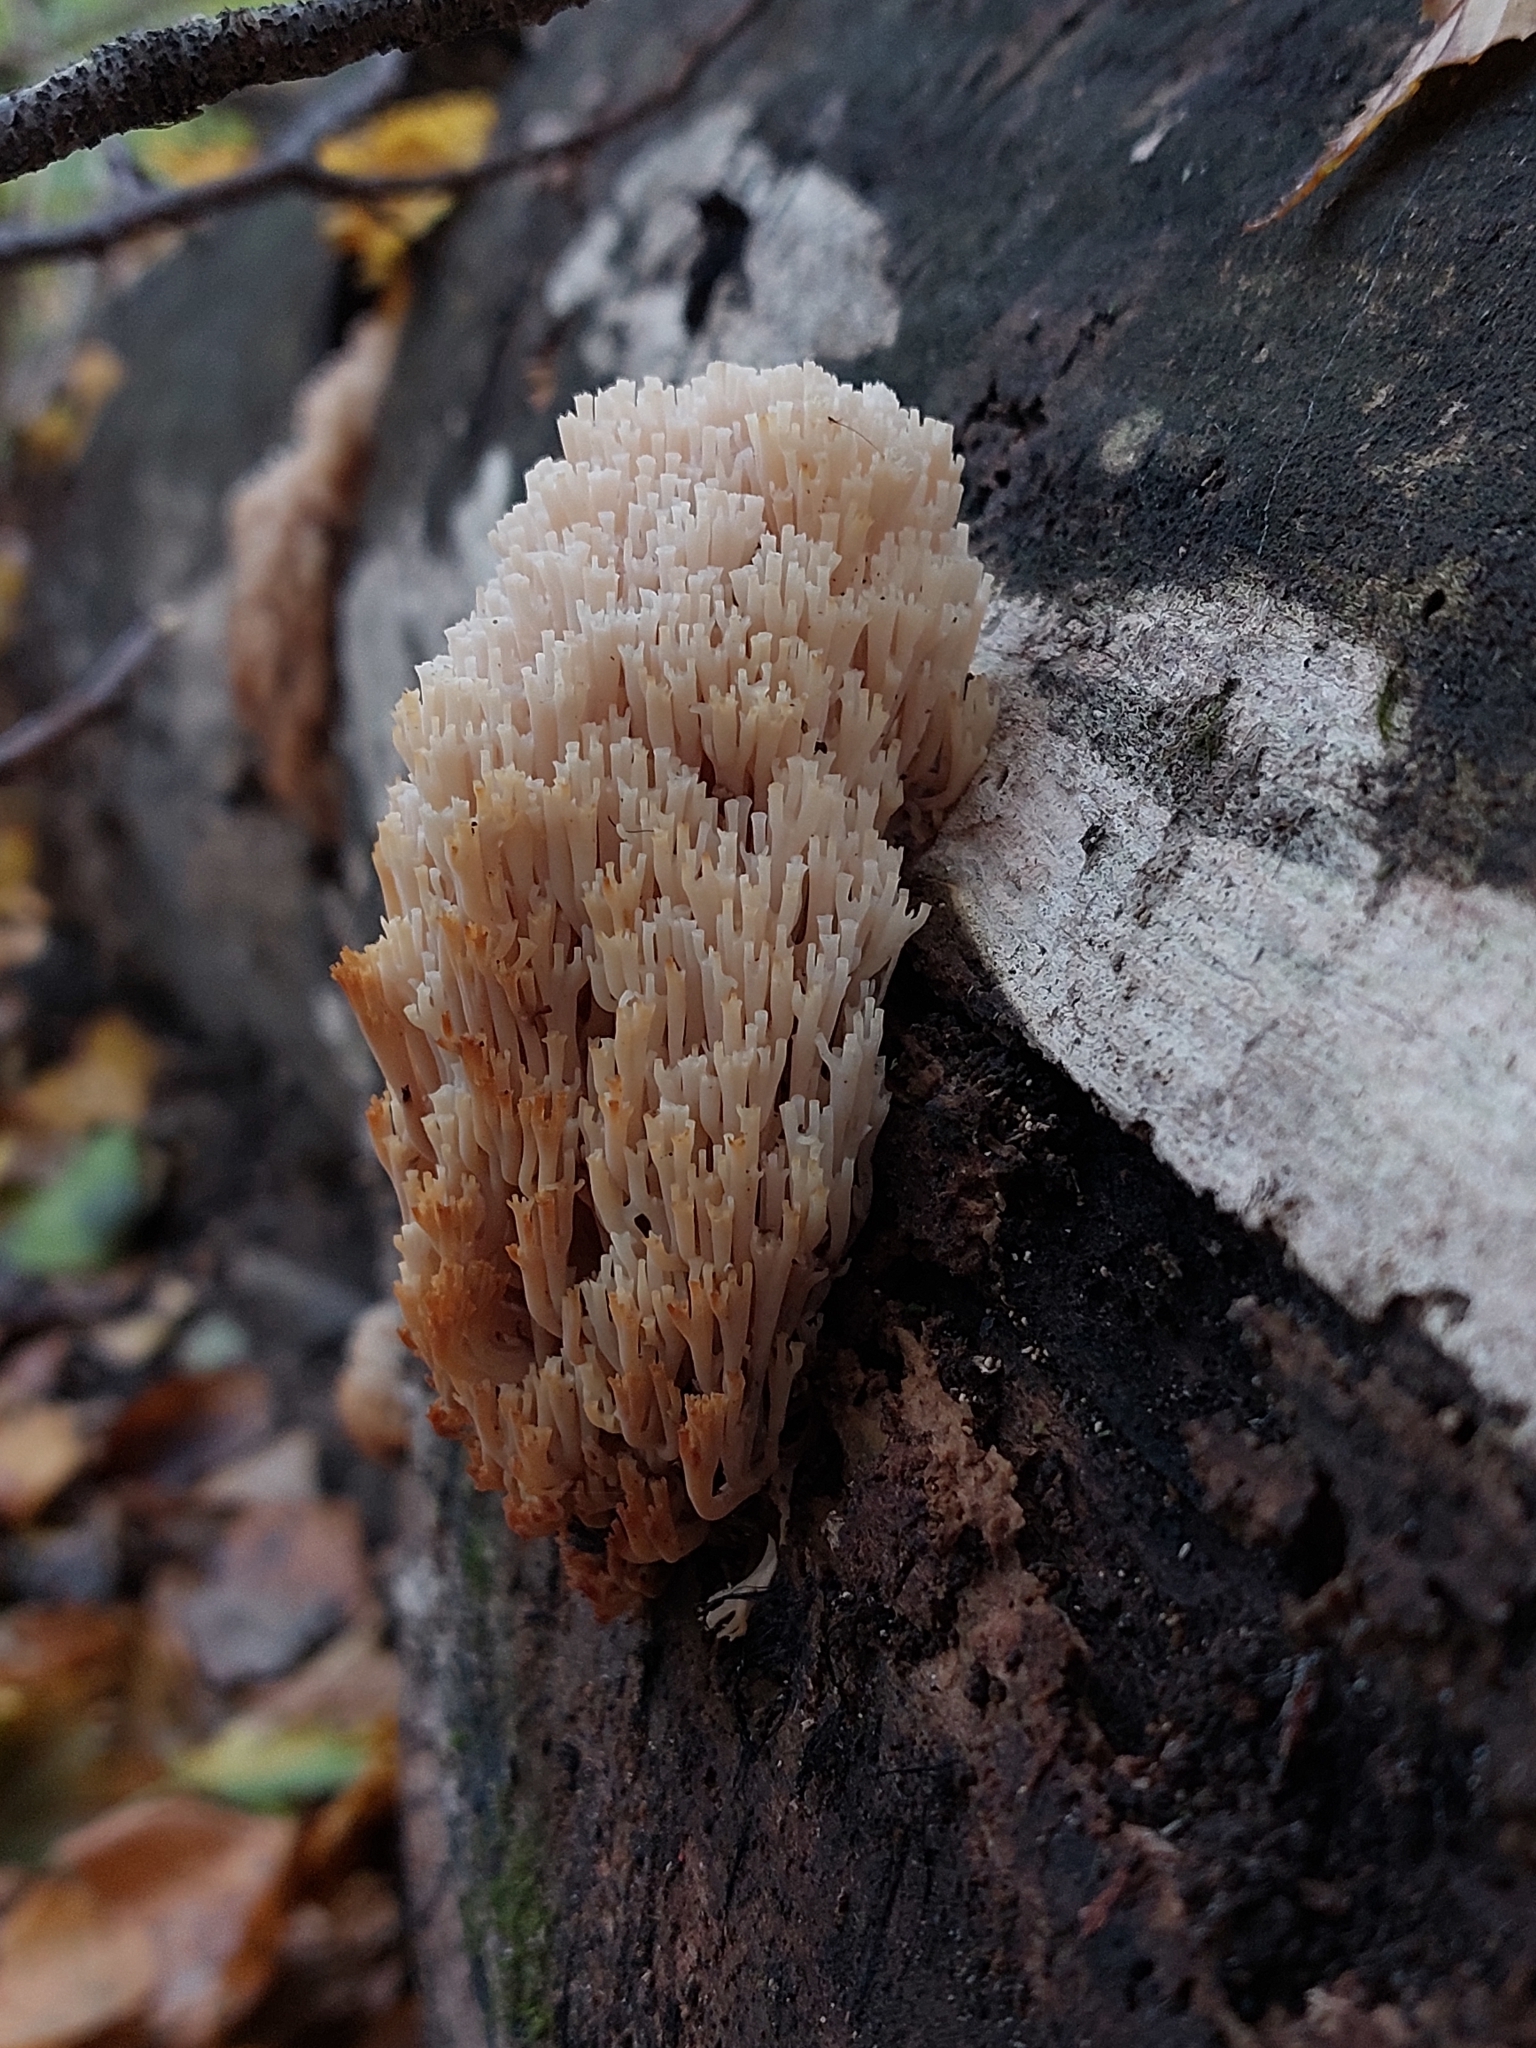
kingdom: Fungi
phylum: Basidiomycota
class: Agaricomycetes
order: Russulales
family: Auriscalpiaceae
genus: Artomyces
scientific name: Artomyces pyxidatus
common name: Crown-tipped coral fungus
